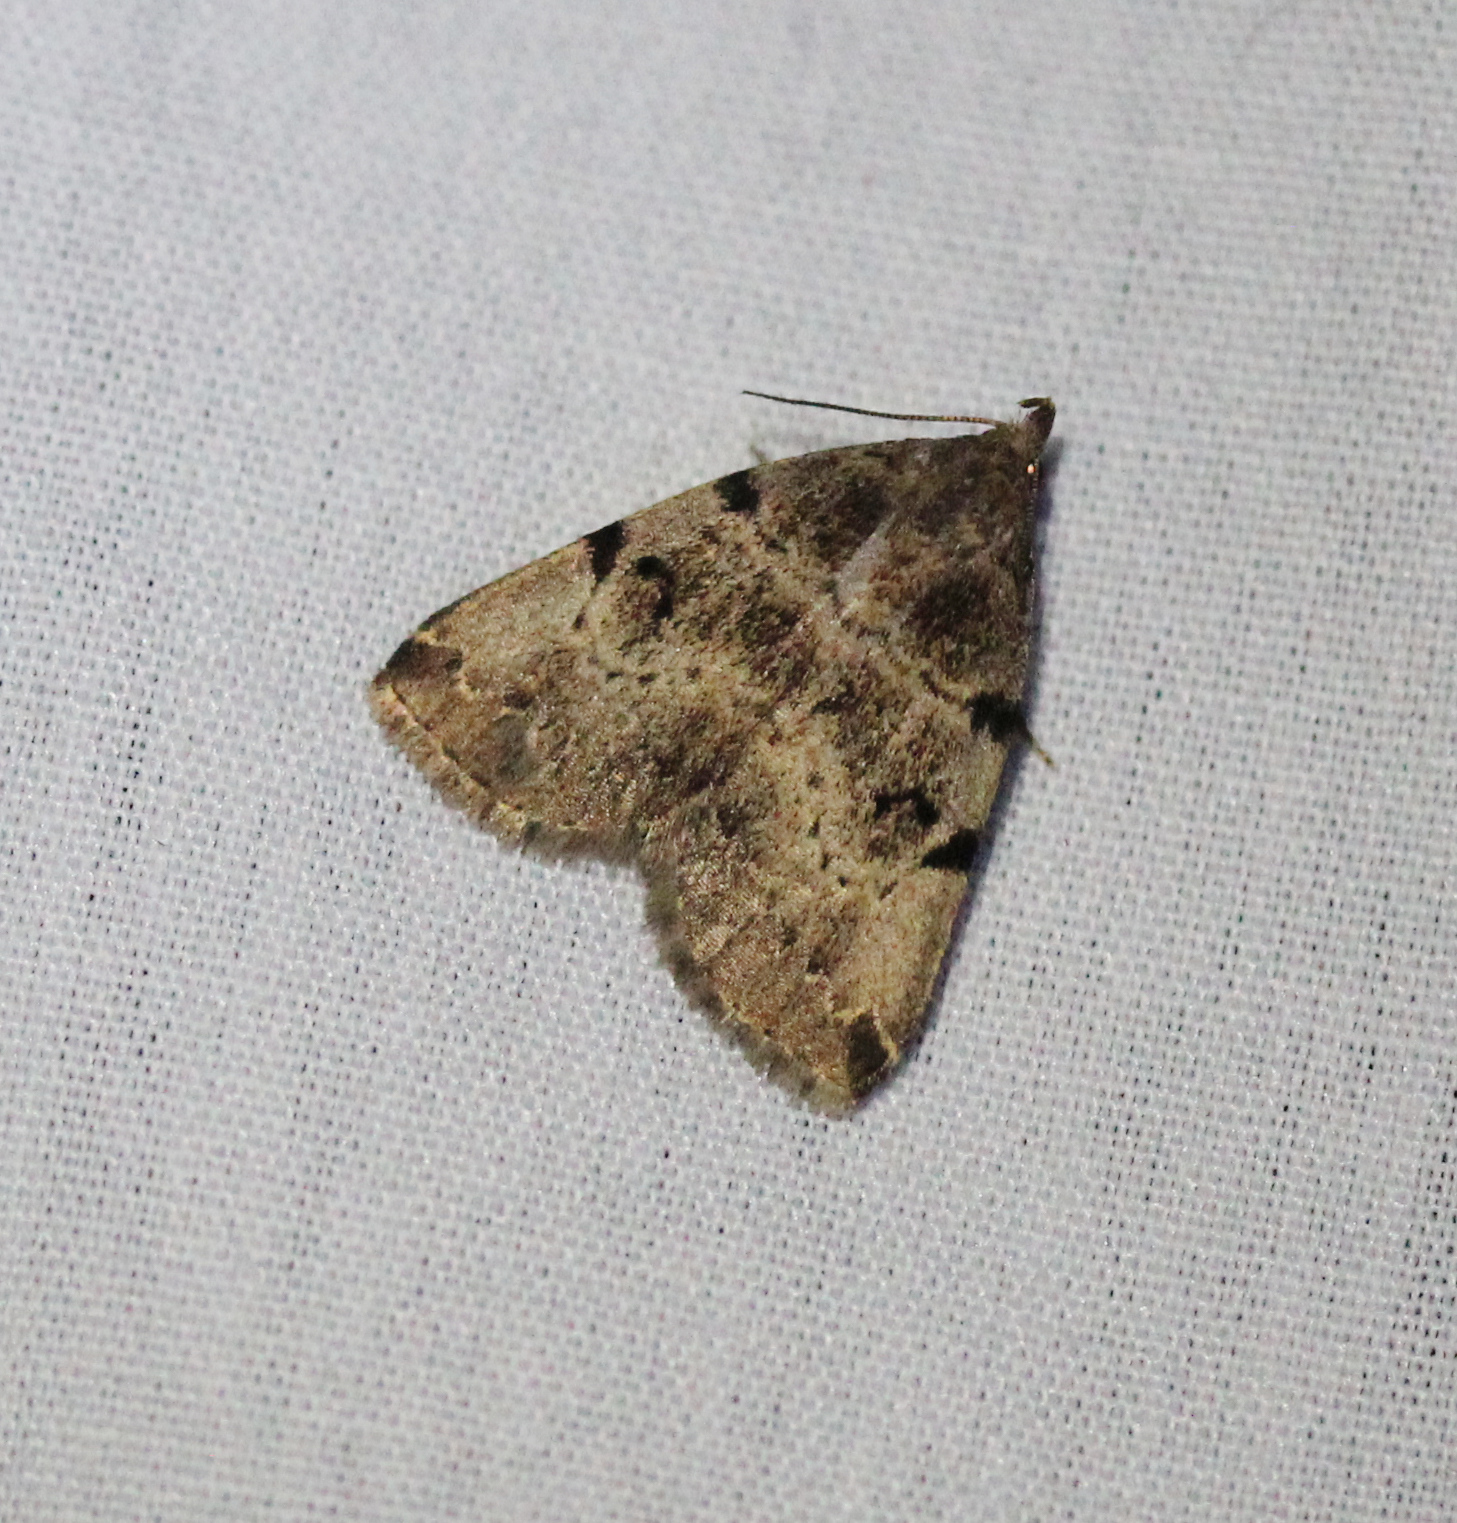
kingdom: Animalia
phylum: Arthropoda
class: Insecta
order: Lepidoptera
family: Erebidae
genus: Zanclognatha
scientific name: Zanclognatha lituralis
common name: Lettered fan-foot
